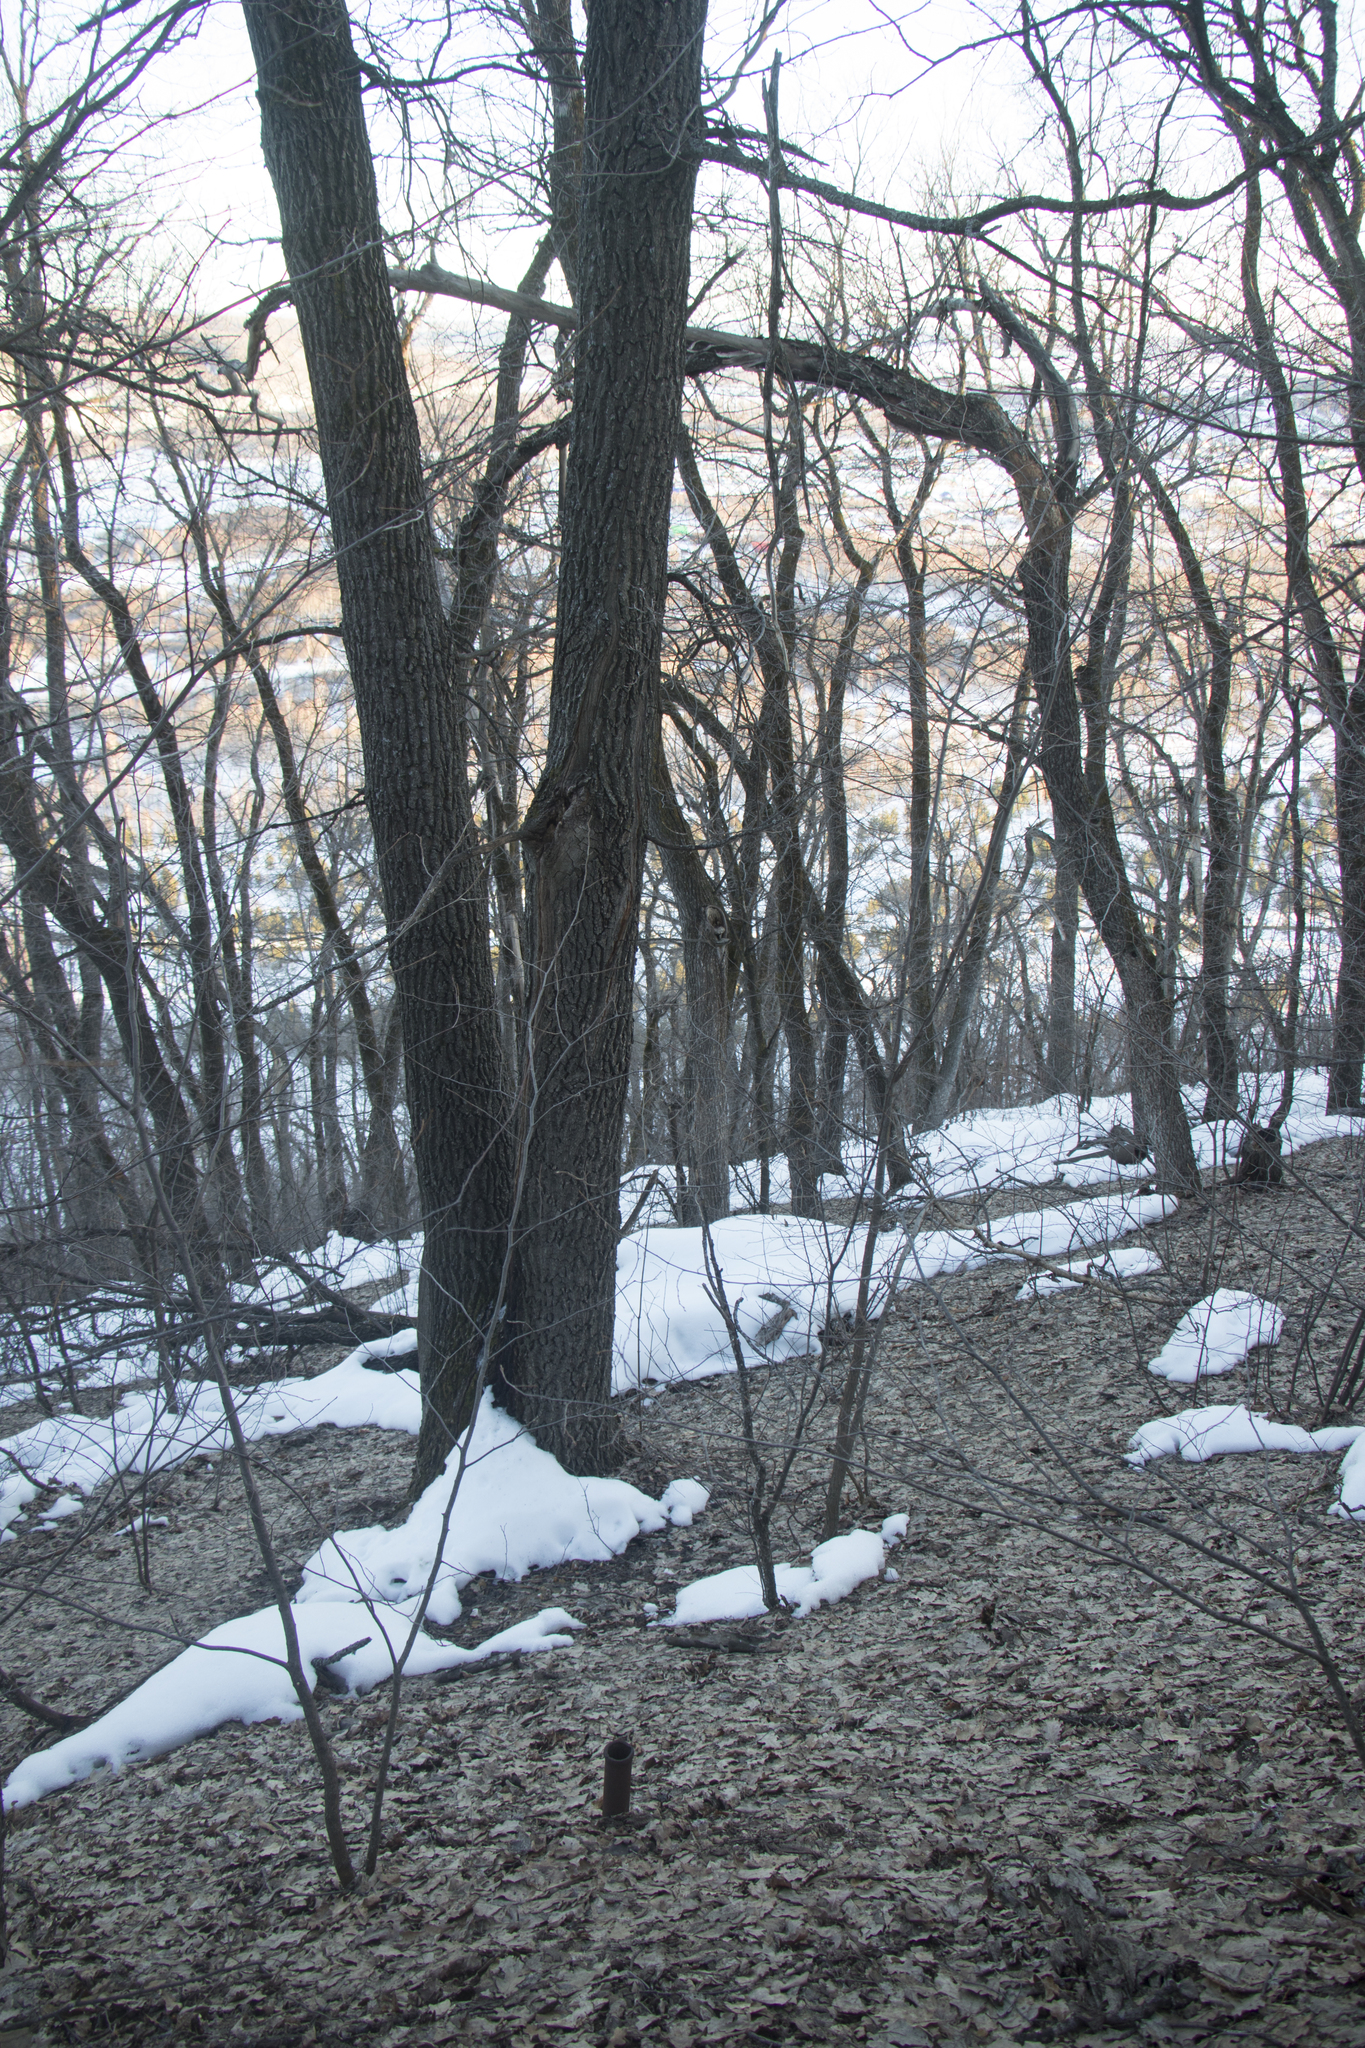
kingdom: Plantae
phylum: Tracheophyta
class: Magnoliopsida
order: Malvales
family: Malvaceae
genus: Tilia
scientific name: Tilia cordata
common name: Small-leaved lime
